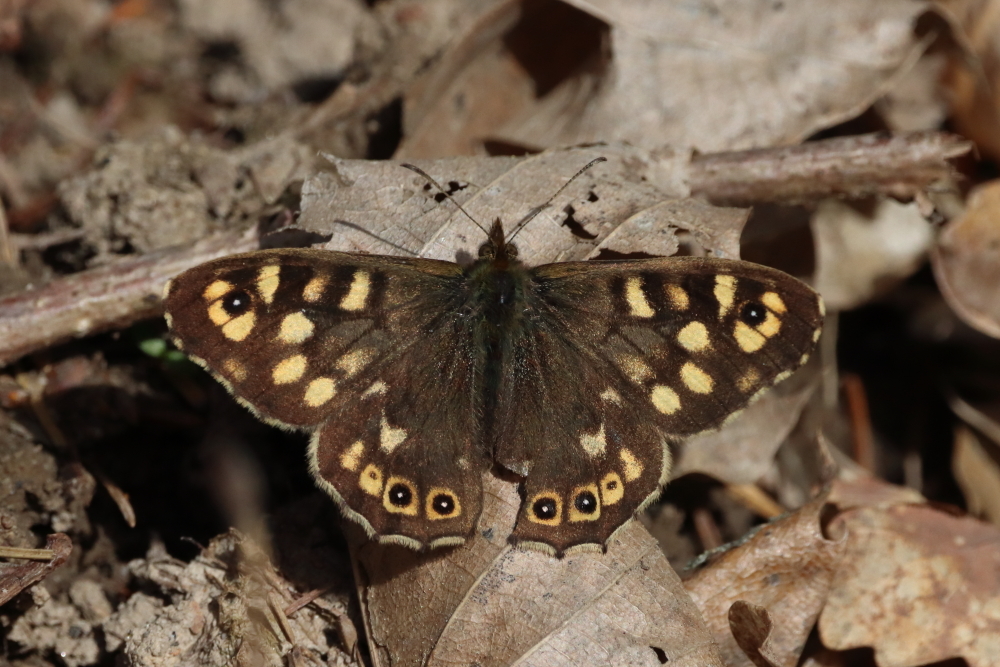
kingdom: Animalia
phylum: Arthropoda
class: Insecta
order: Lepidoptera
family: Nymphalidae
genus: Pararge
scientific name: Pararge aegeria
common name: Speckled wood
